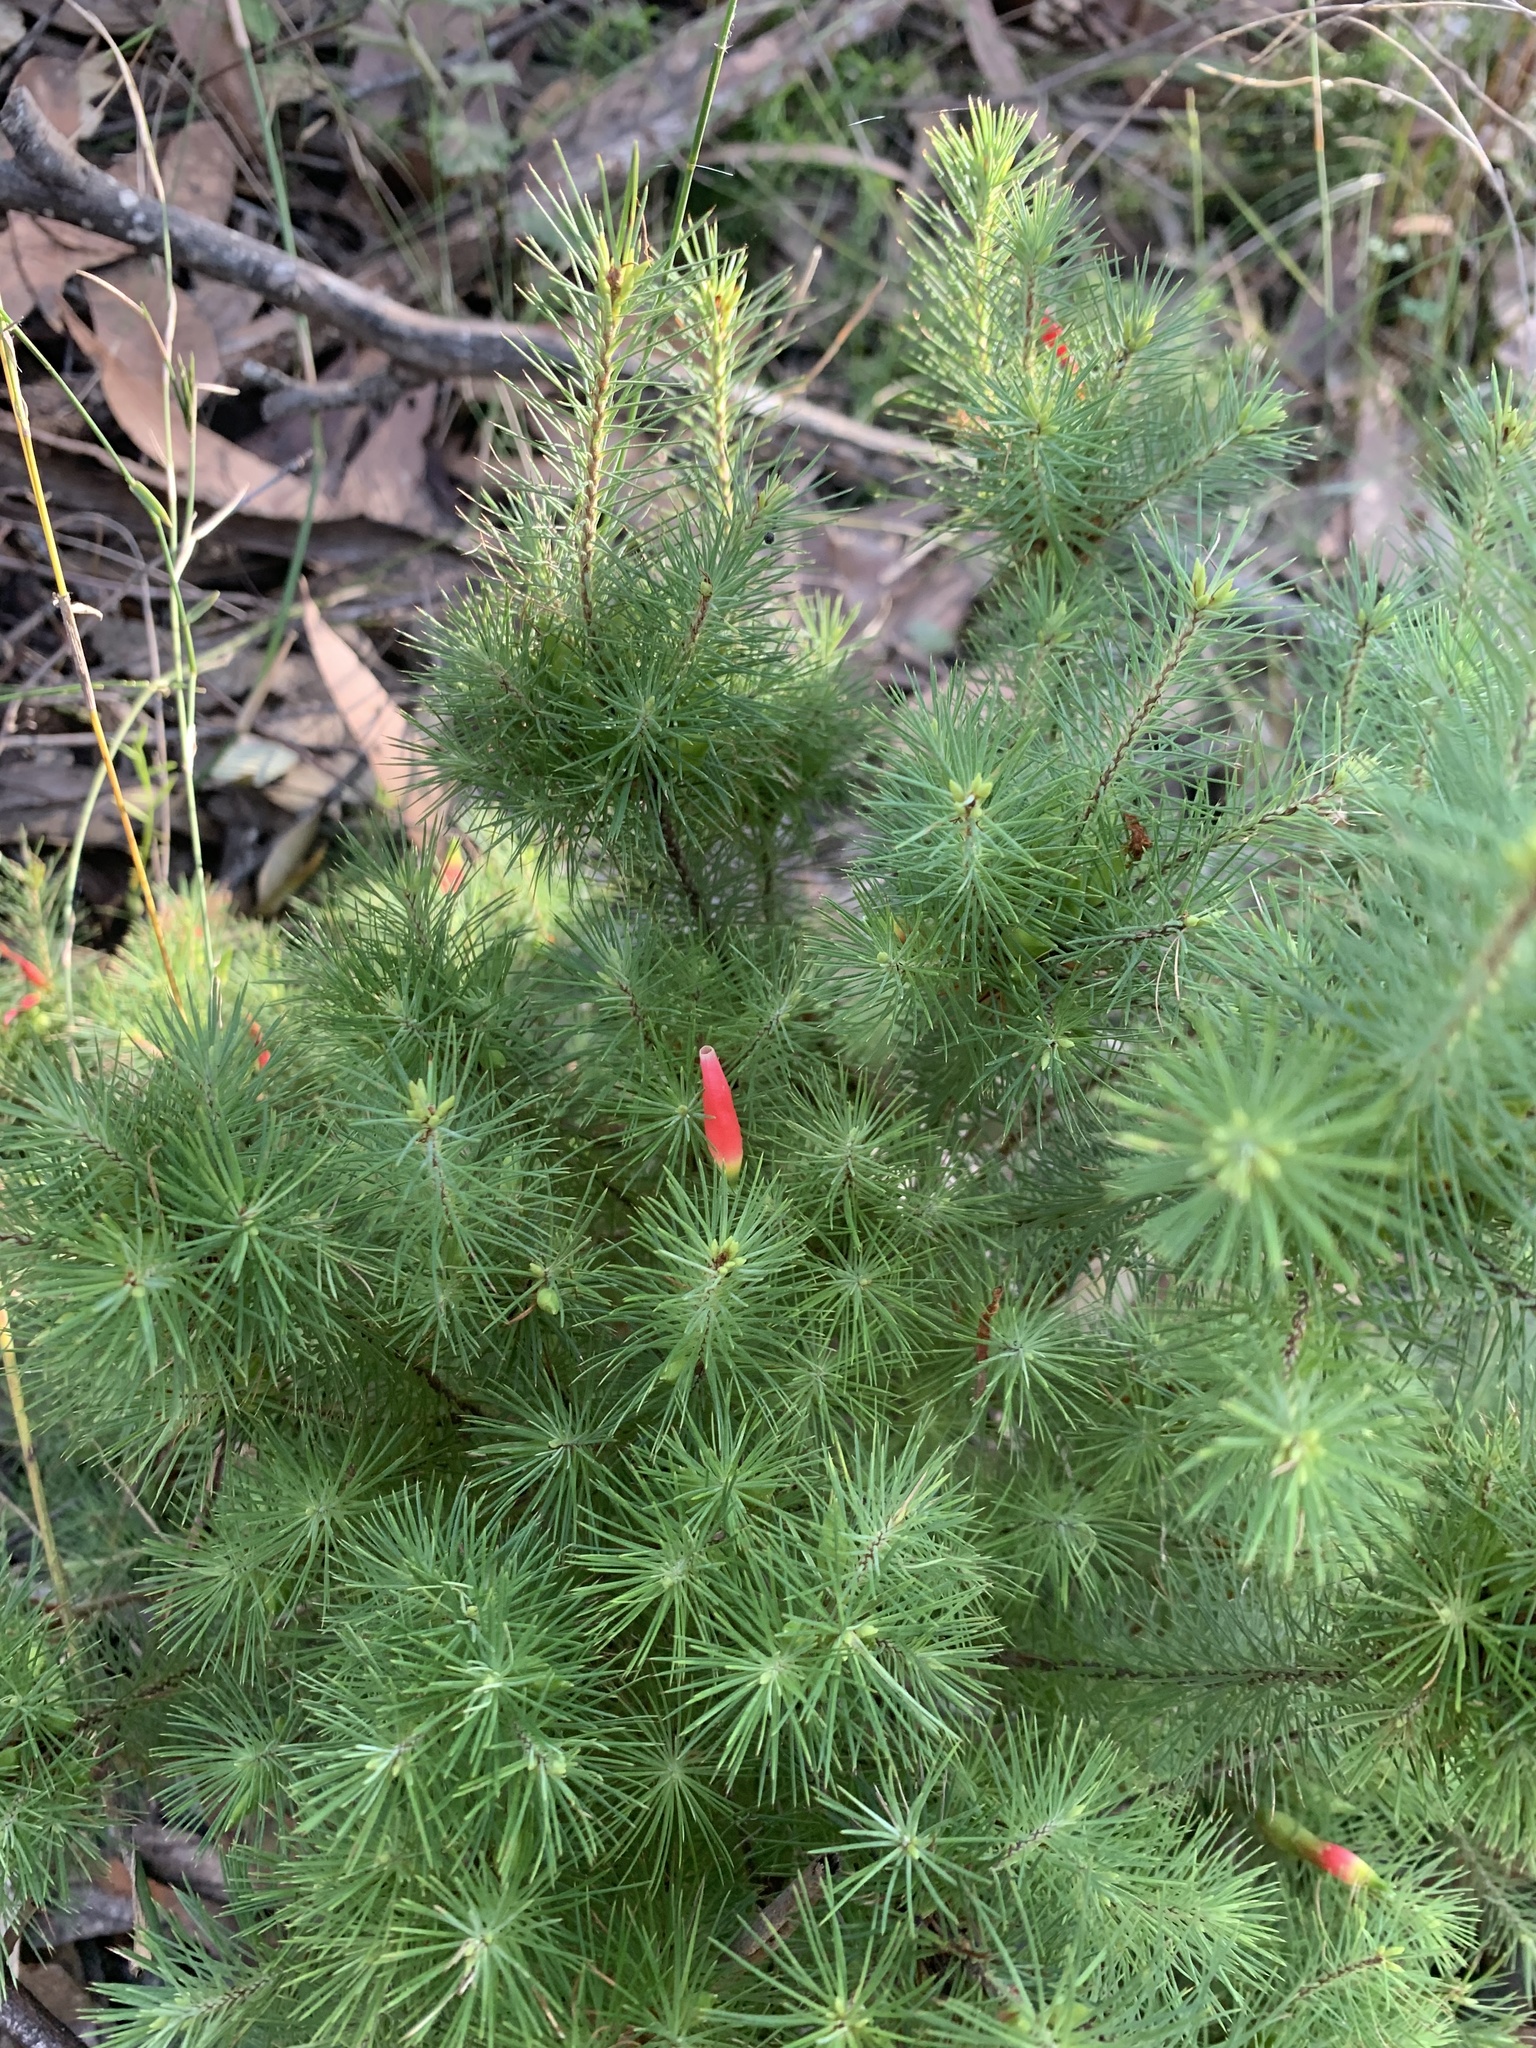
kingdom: Plantae
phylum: Tracheophyta
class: Magnoliopsida
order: Ericales
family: Ericaceae
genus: Stenanthera
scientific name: Stenanthera pinifolia
